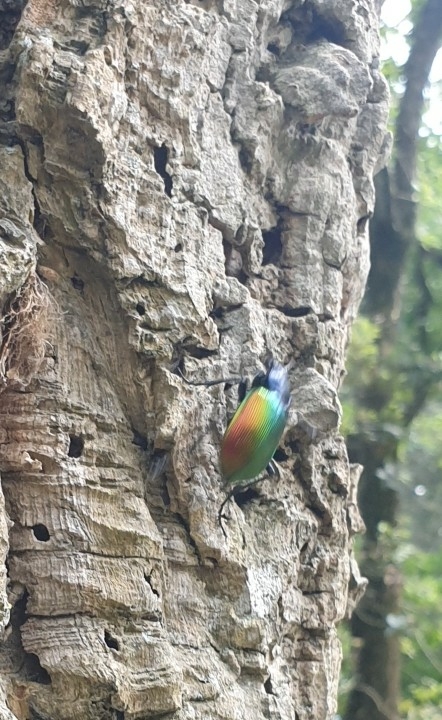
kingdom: Animalia
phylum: Arthropoda
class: Insecta
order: Coleoptera
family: Carabidae
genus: Calosoma
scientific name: Calosoma sycophanta
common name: Forest caterpillar hunter
